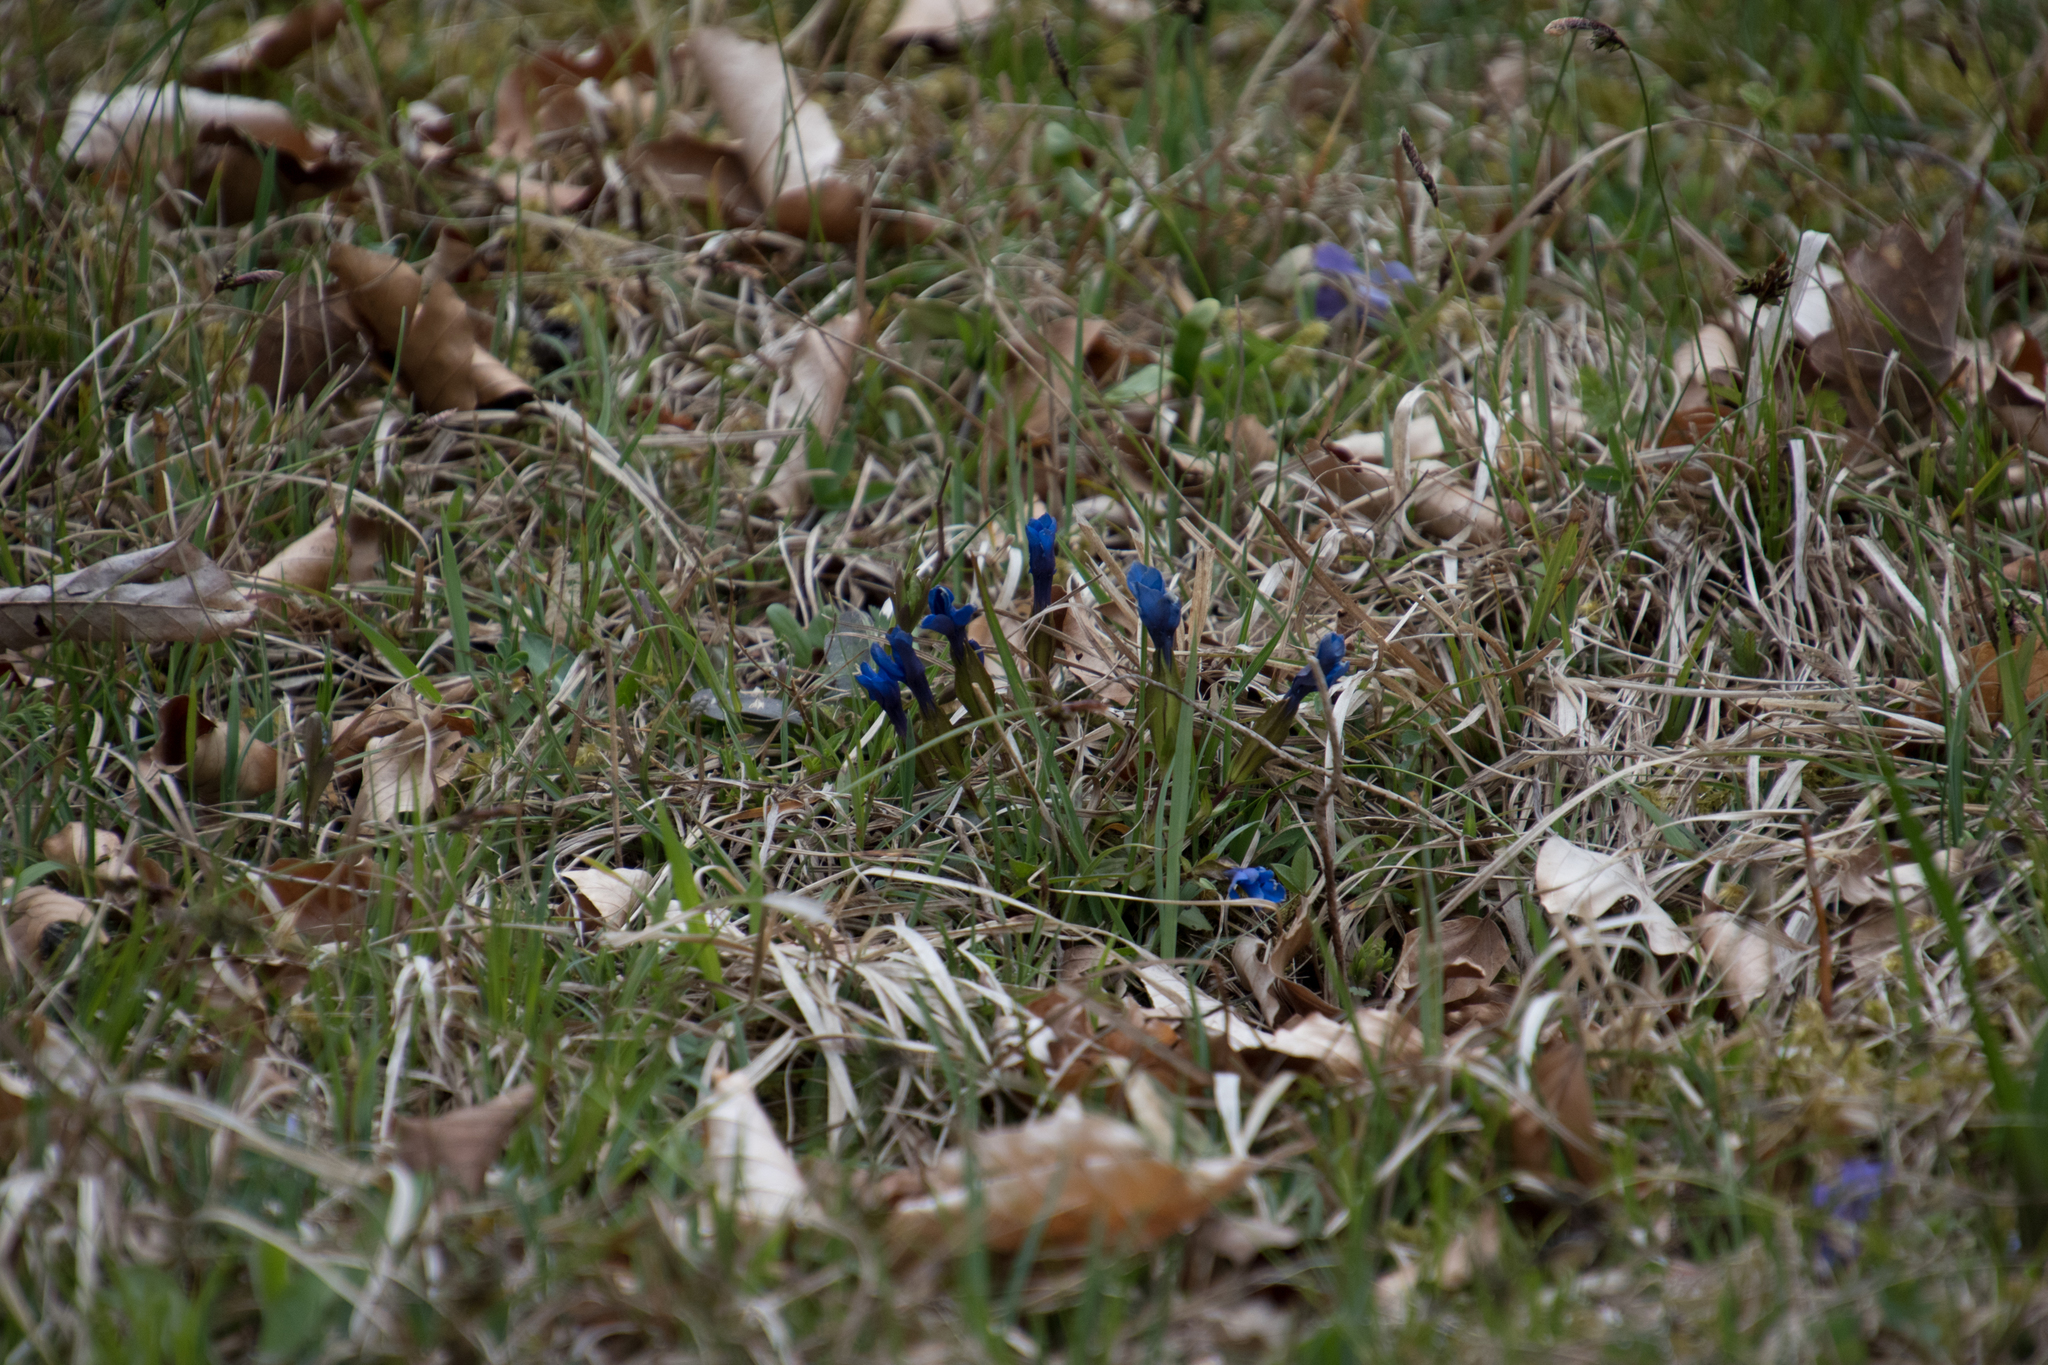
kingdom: Plantae
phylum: Tracheophyta
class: Magnoliopsida
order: Gentianales
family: Gentianaceae
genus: Gentiana
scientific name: Gentiana verna
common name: Spring gentian
